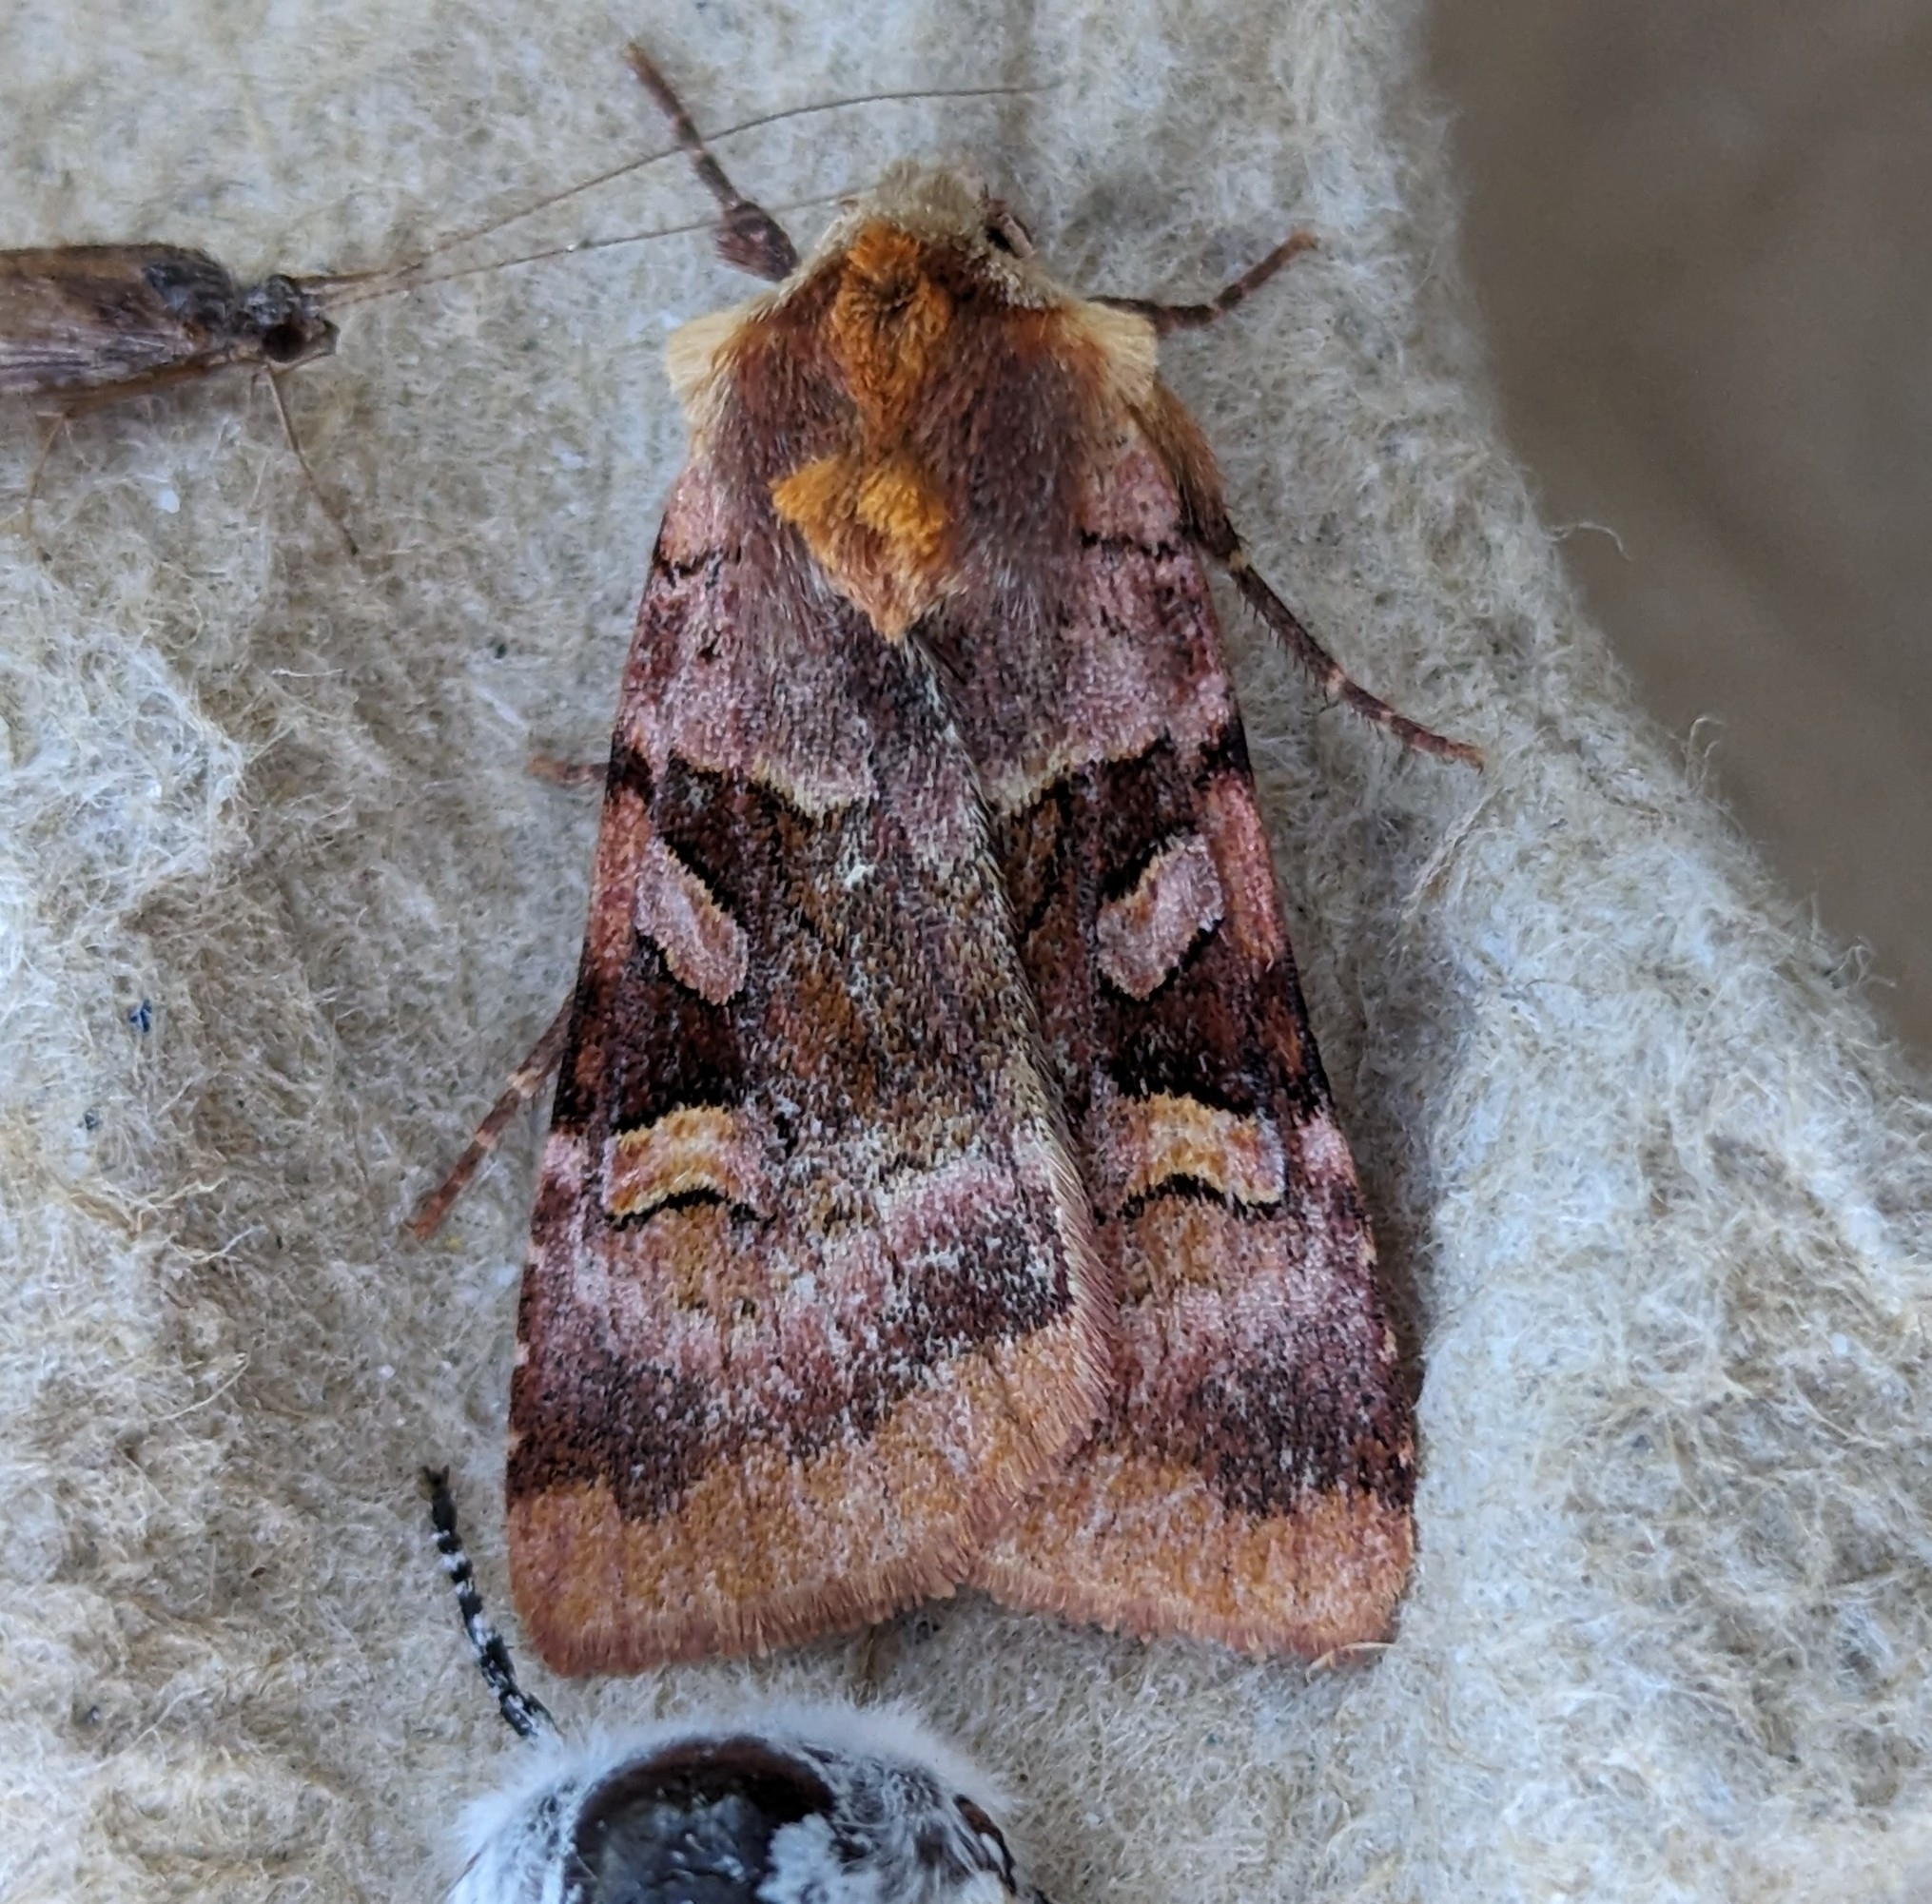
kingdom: Animalia
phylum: Arthropoda
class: Insecta
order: Lepidoptera
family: Noctuidae
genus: Xestia
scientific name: Xestia oblata
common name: Rosy dart
